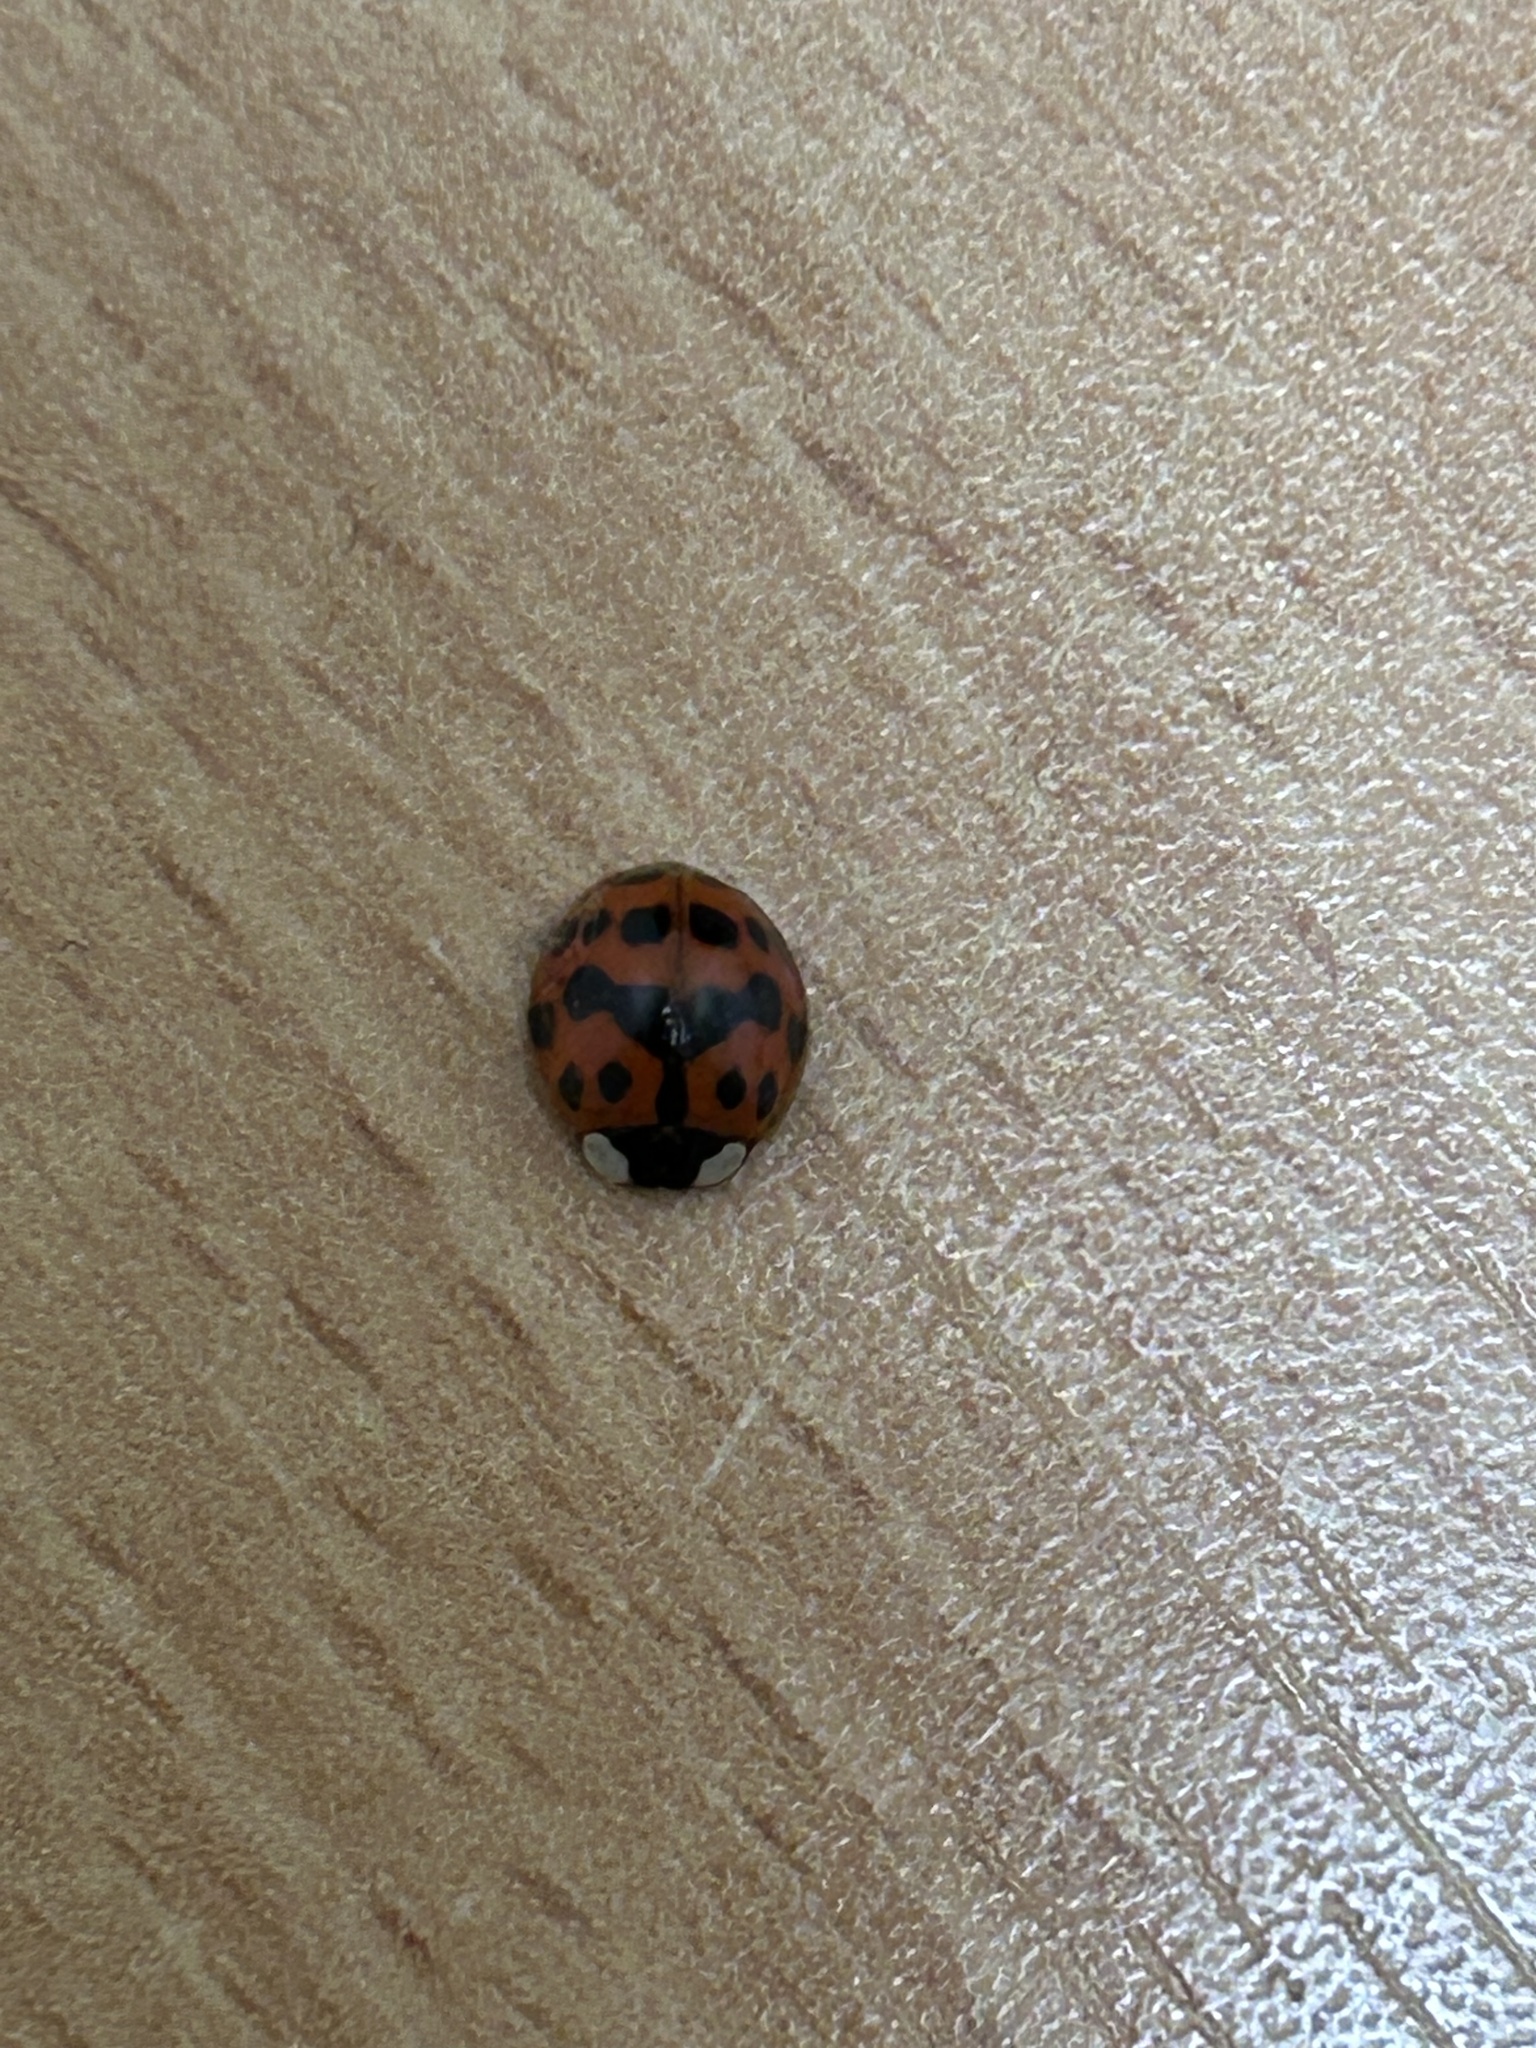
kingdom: Animalia
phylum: Arthropoda
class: Insecta
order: Coleoptera
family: Coccinellidae
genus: Harmonia
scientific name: Harmonia axyridis
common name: Harlequin ladybird
